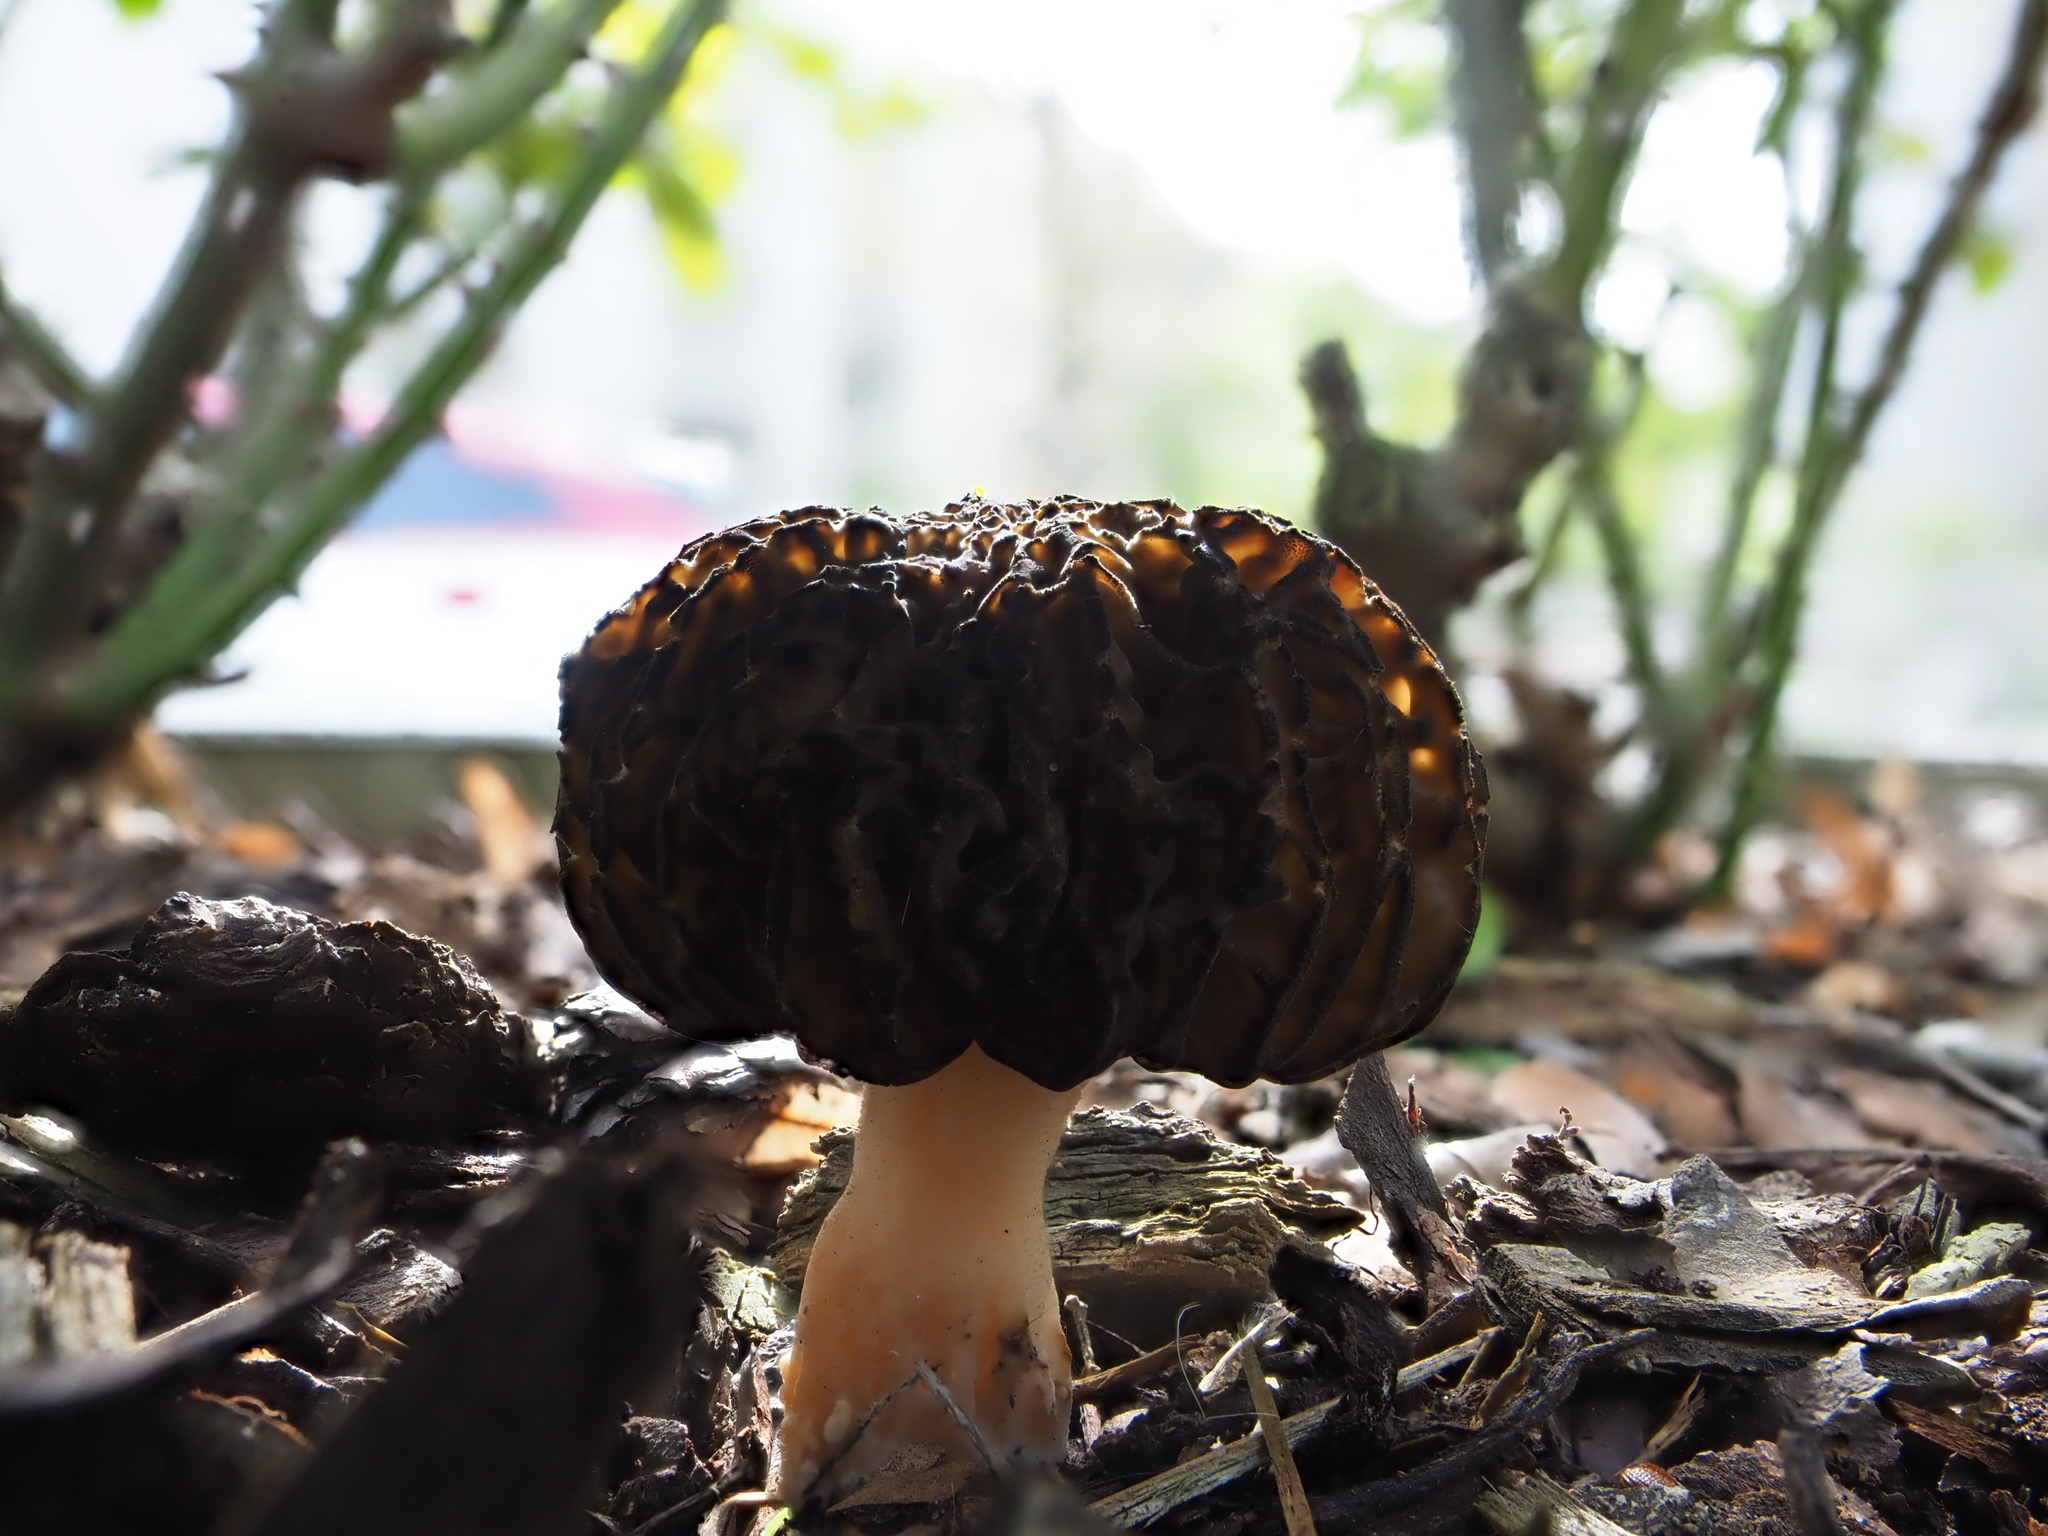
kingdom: Fungi
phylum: Ascomycota
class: Pezizomycetes
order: Pezizales
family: Morchellaceae
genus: Morchella
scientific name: Morchella importuna
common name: Landscaping black morel
